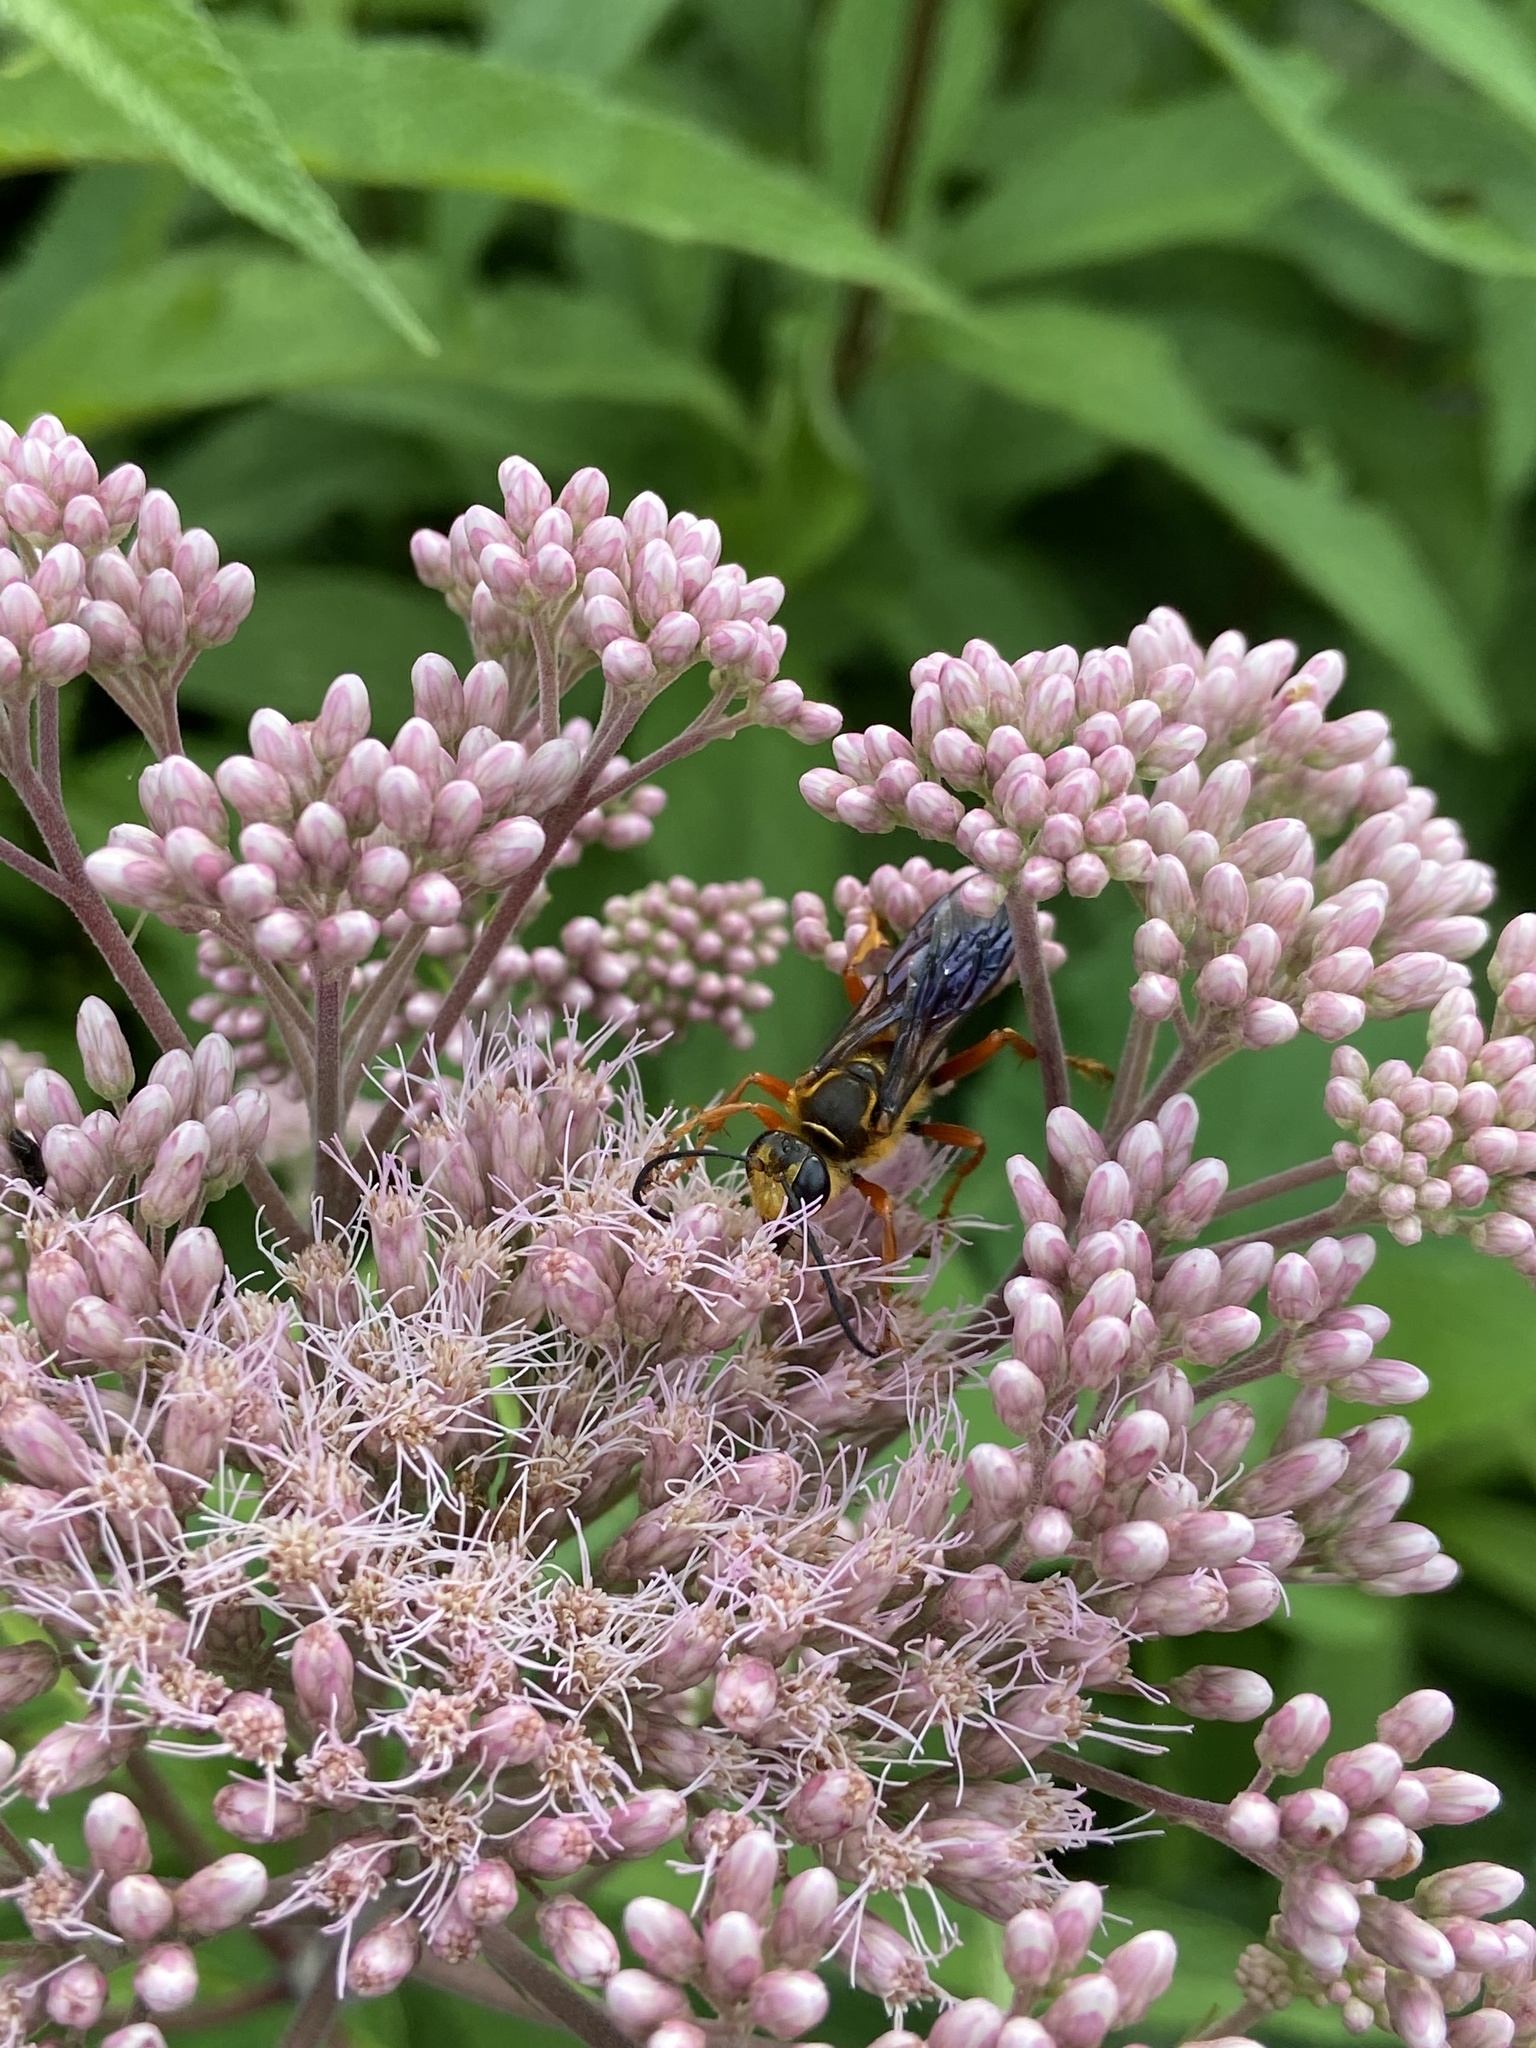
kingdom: Animalia
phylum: Arthropoda
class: Insecta
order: Hymenoptera
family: Sphecidae
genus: Sphex
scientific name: Sphex ichneumoneus
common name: Great golden digger wasp
